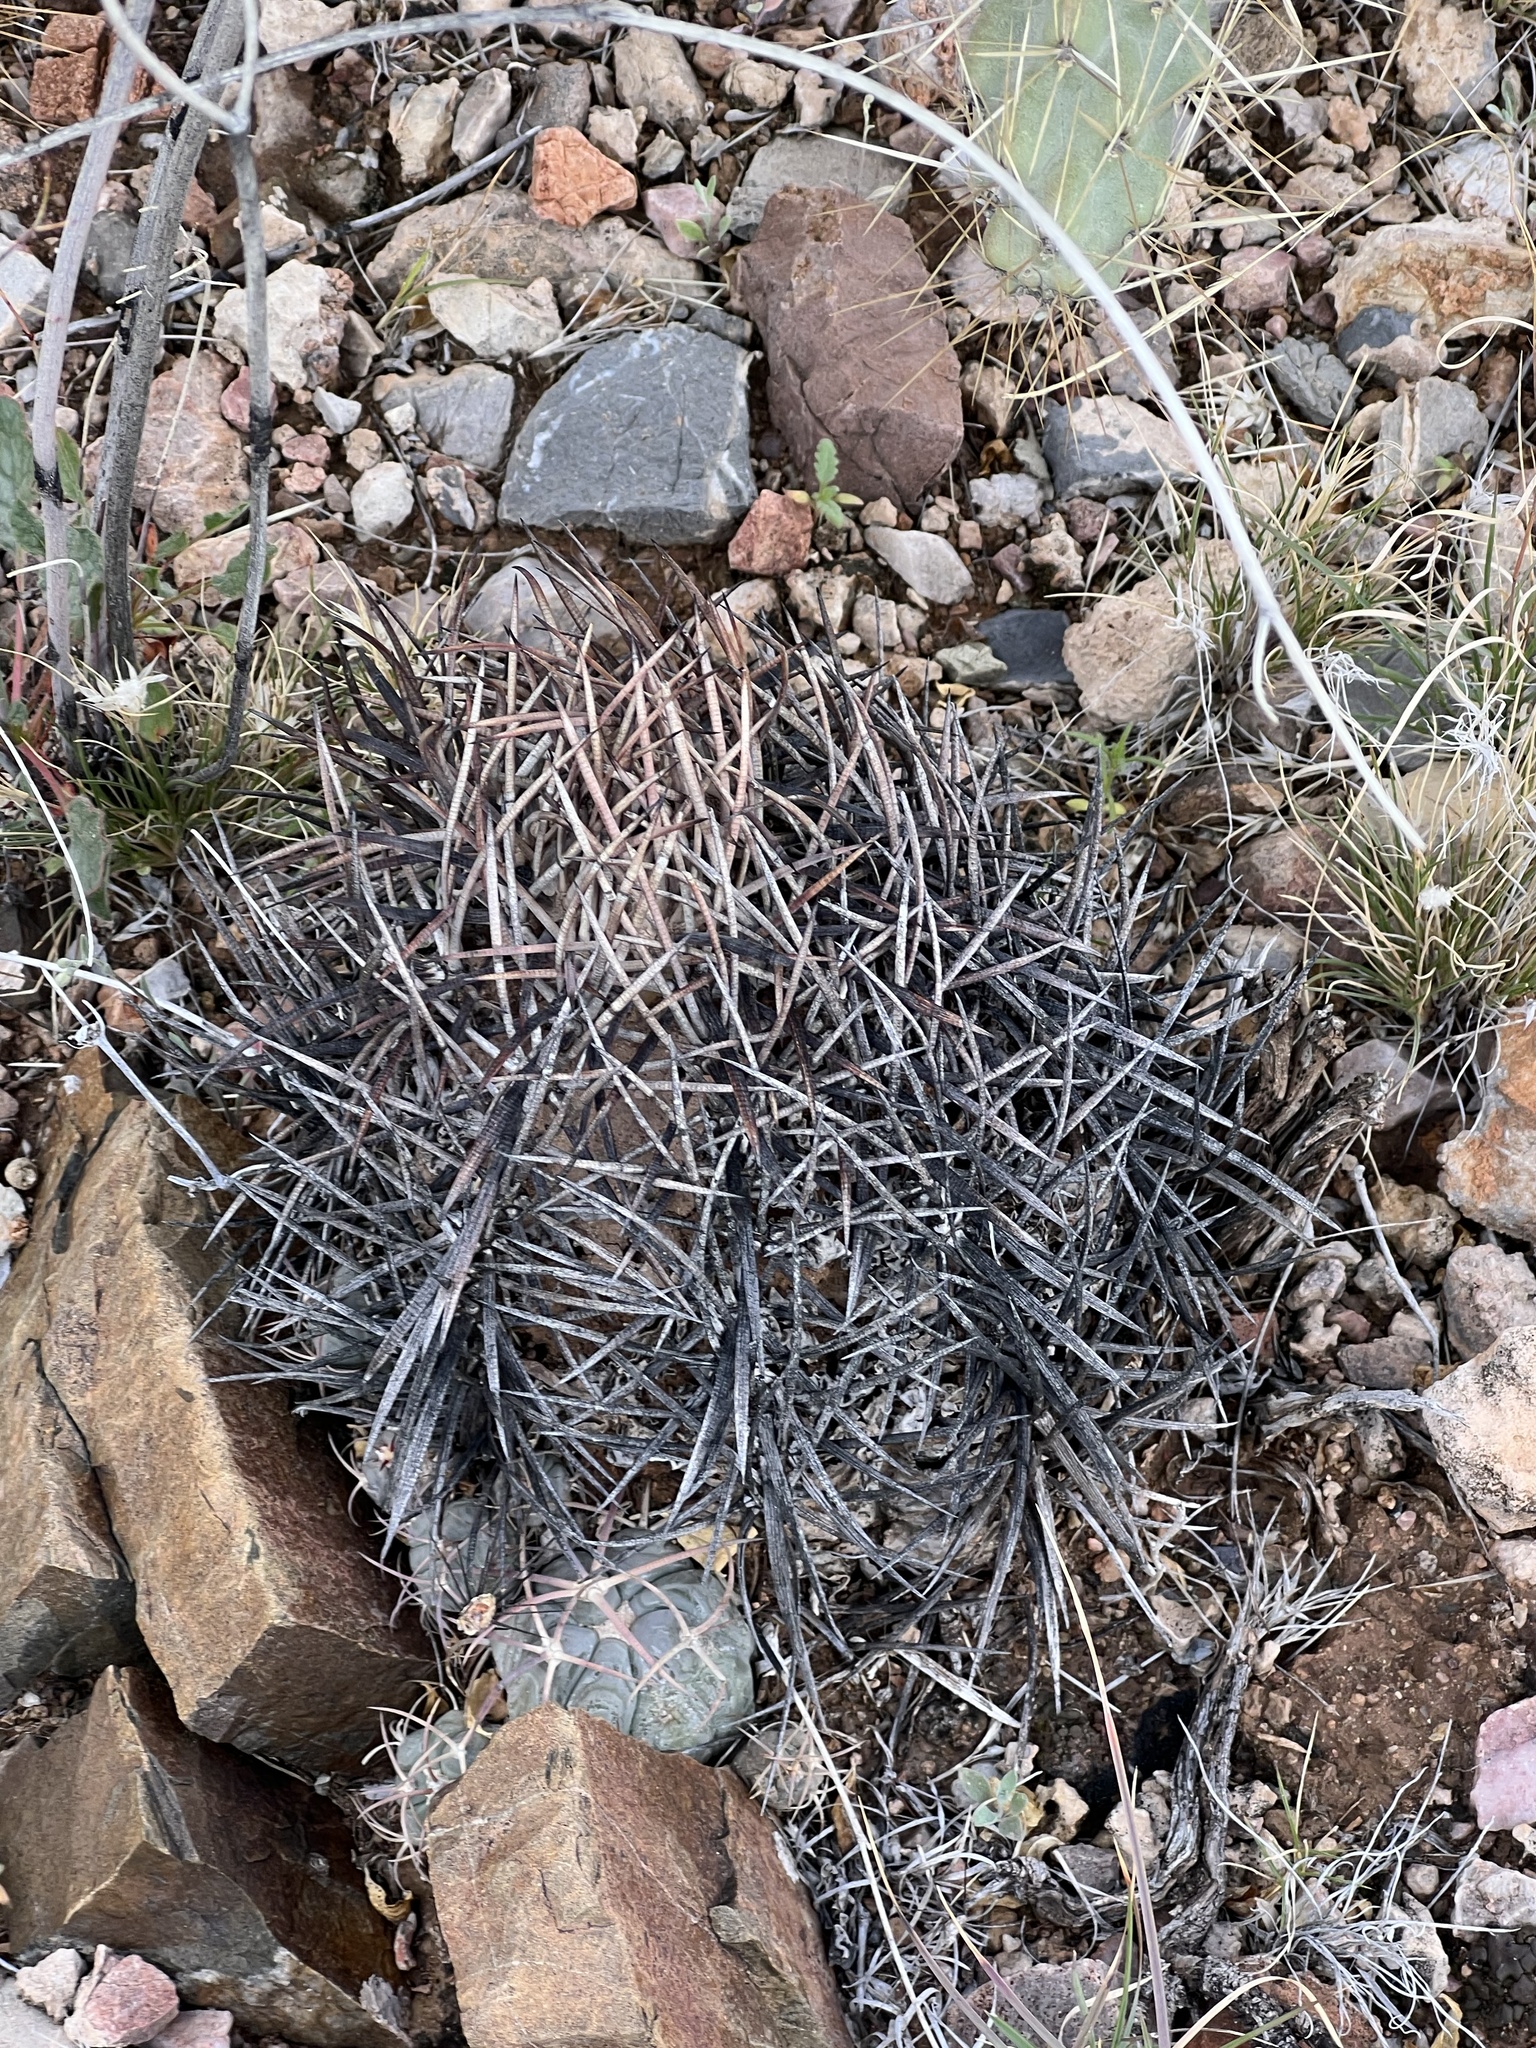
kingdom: Plantae
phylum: Tracheophyta
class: Magnoliopsida
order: Caryophyllales
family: Cactaceae
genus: Echinocactus
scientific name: Echinocactus horizonthalonius
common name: Devilshead
